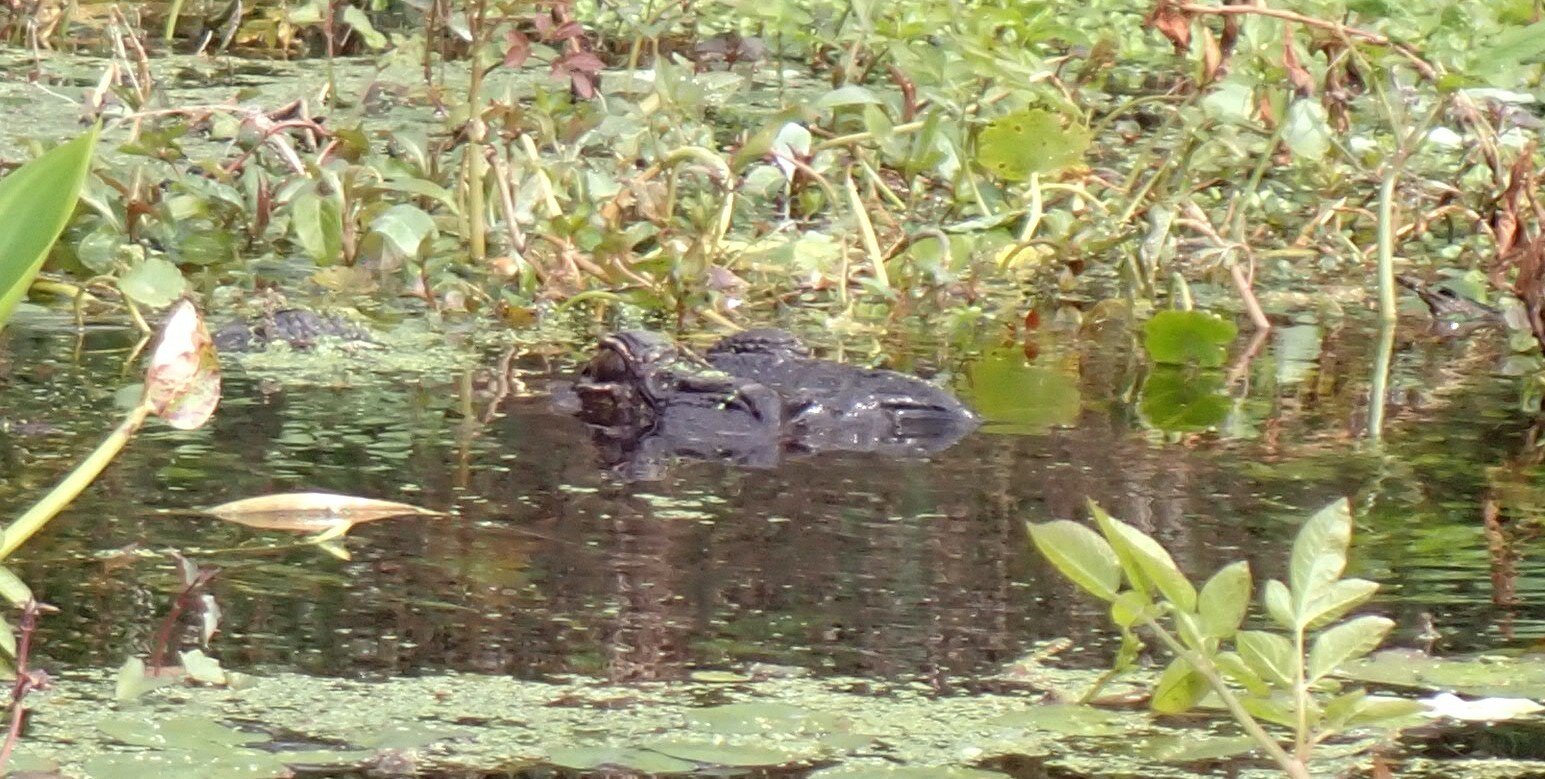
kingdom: Animalia
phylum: Chordata
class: Crocodylia
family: Alligatoridae
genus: Alligator
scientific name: Alligator mississippiensis
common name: American alligator
